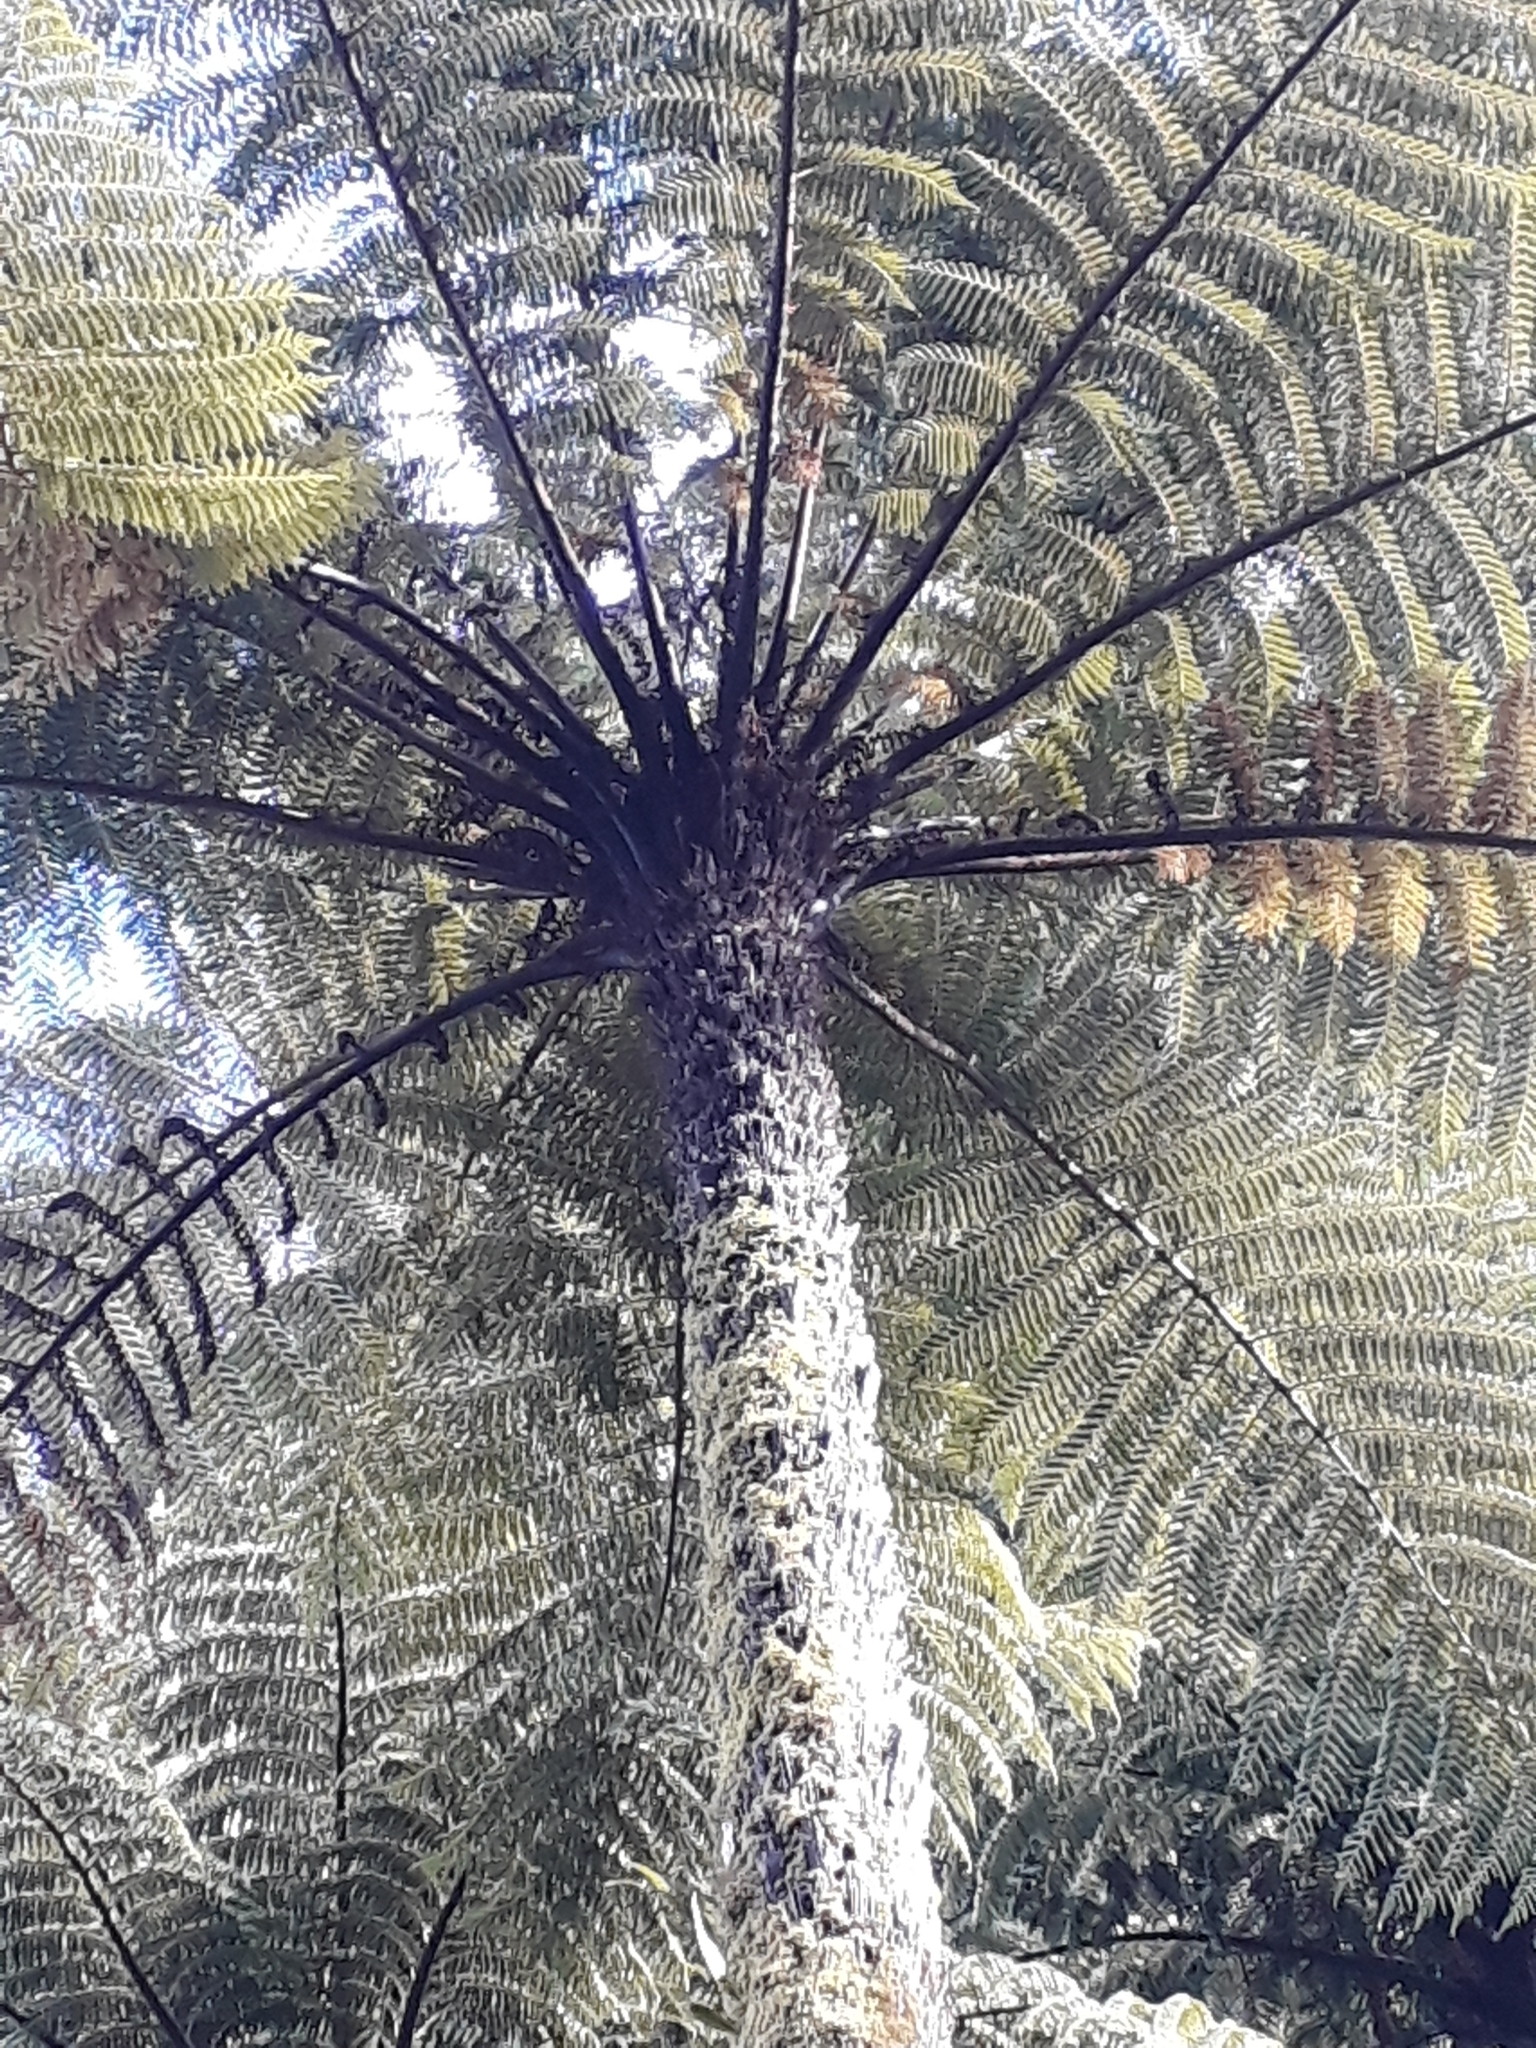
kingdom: Plantae
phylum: Tracheophyta
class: Polypodiopsida
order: Cyatheales
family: Cyatheaceae
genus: Cyathea
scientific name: Cyathea cunninghamii
